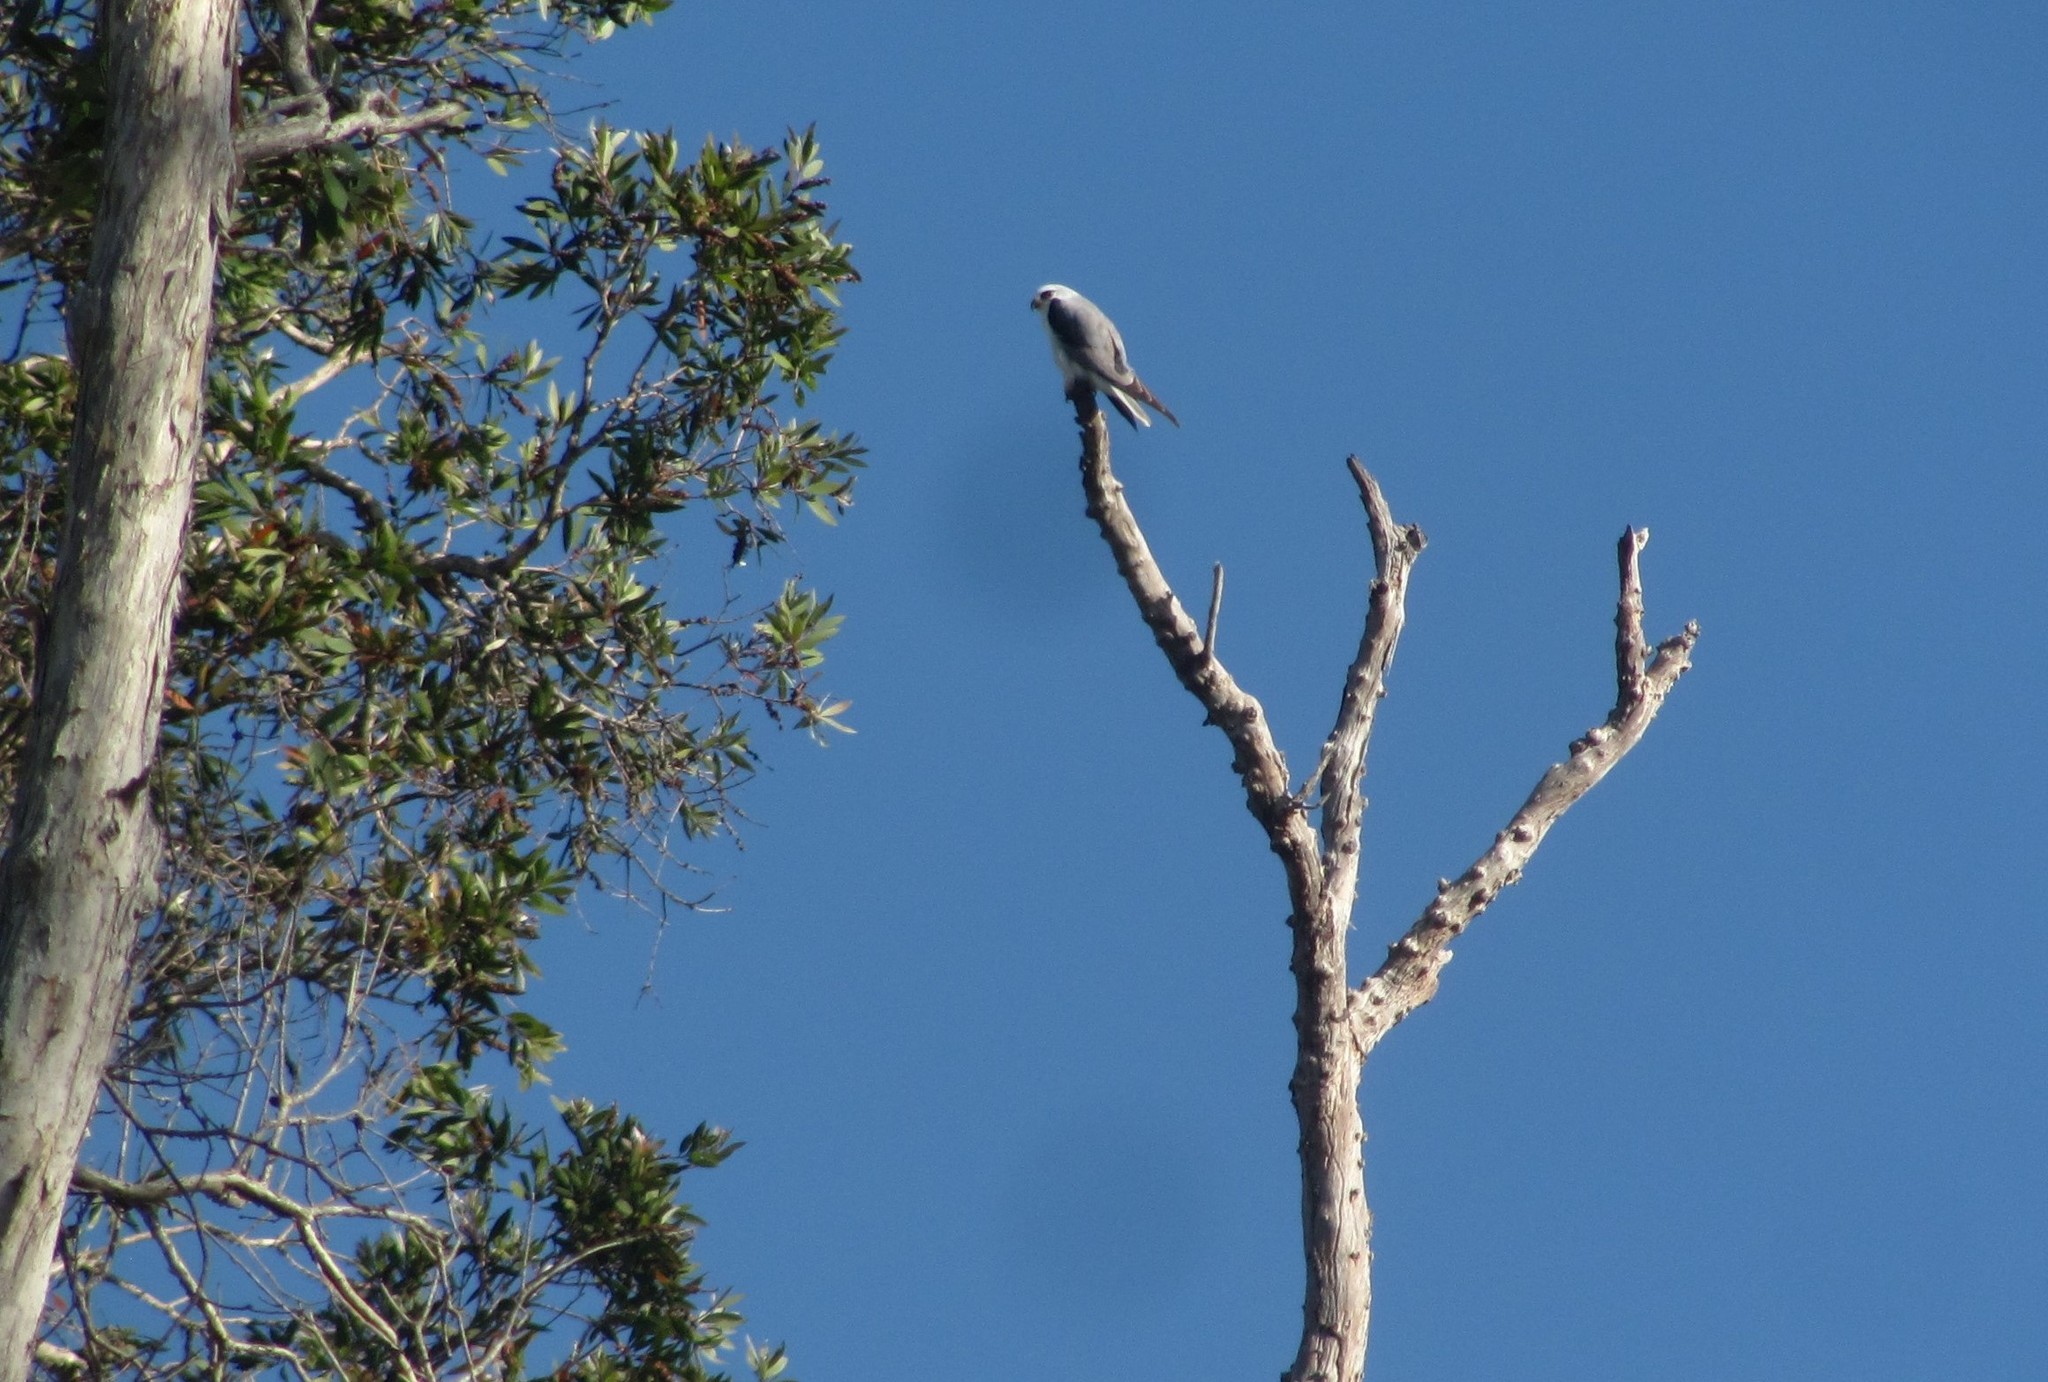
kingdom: Animalia
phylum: Chordata
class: Aves
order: Accipitriformes
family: Accipitridae
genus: Elanus
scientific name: Elanus axillaris
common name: Black-shouldered kite
